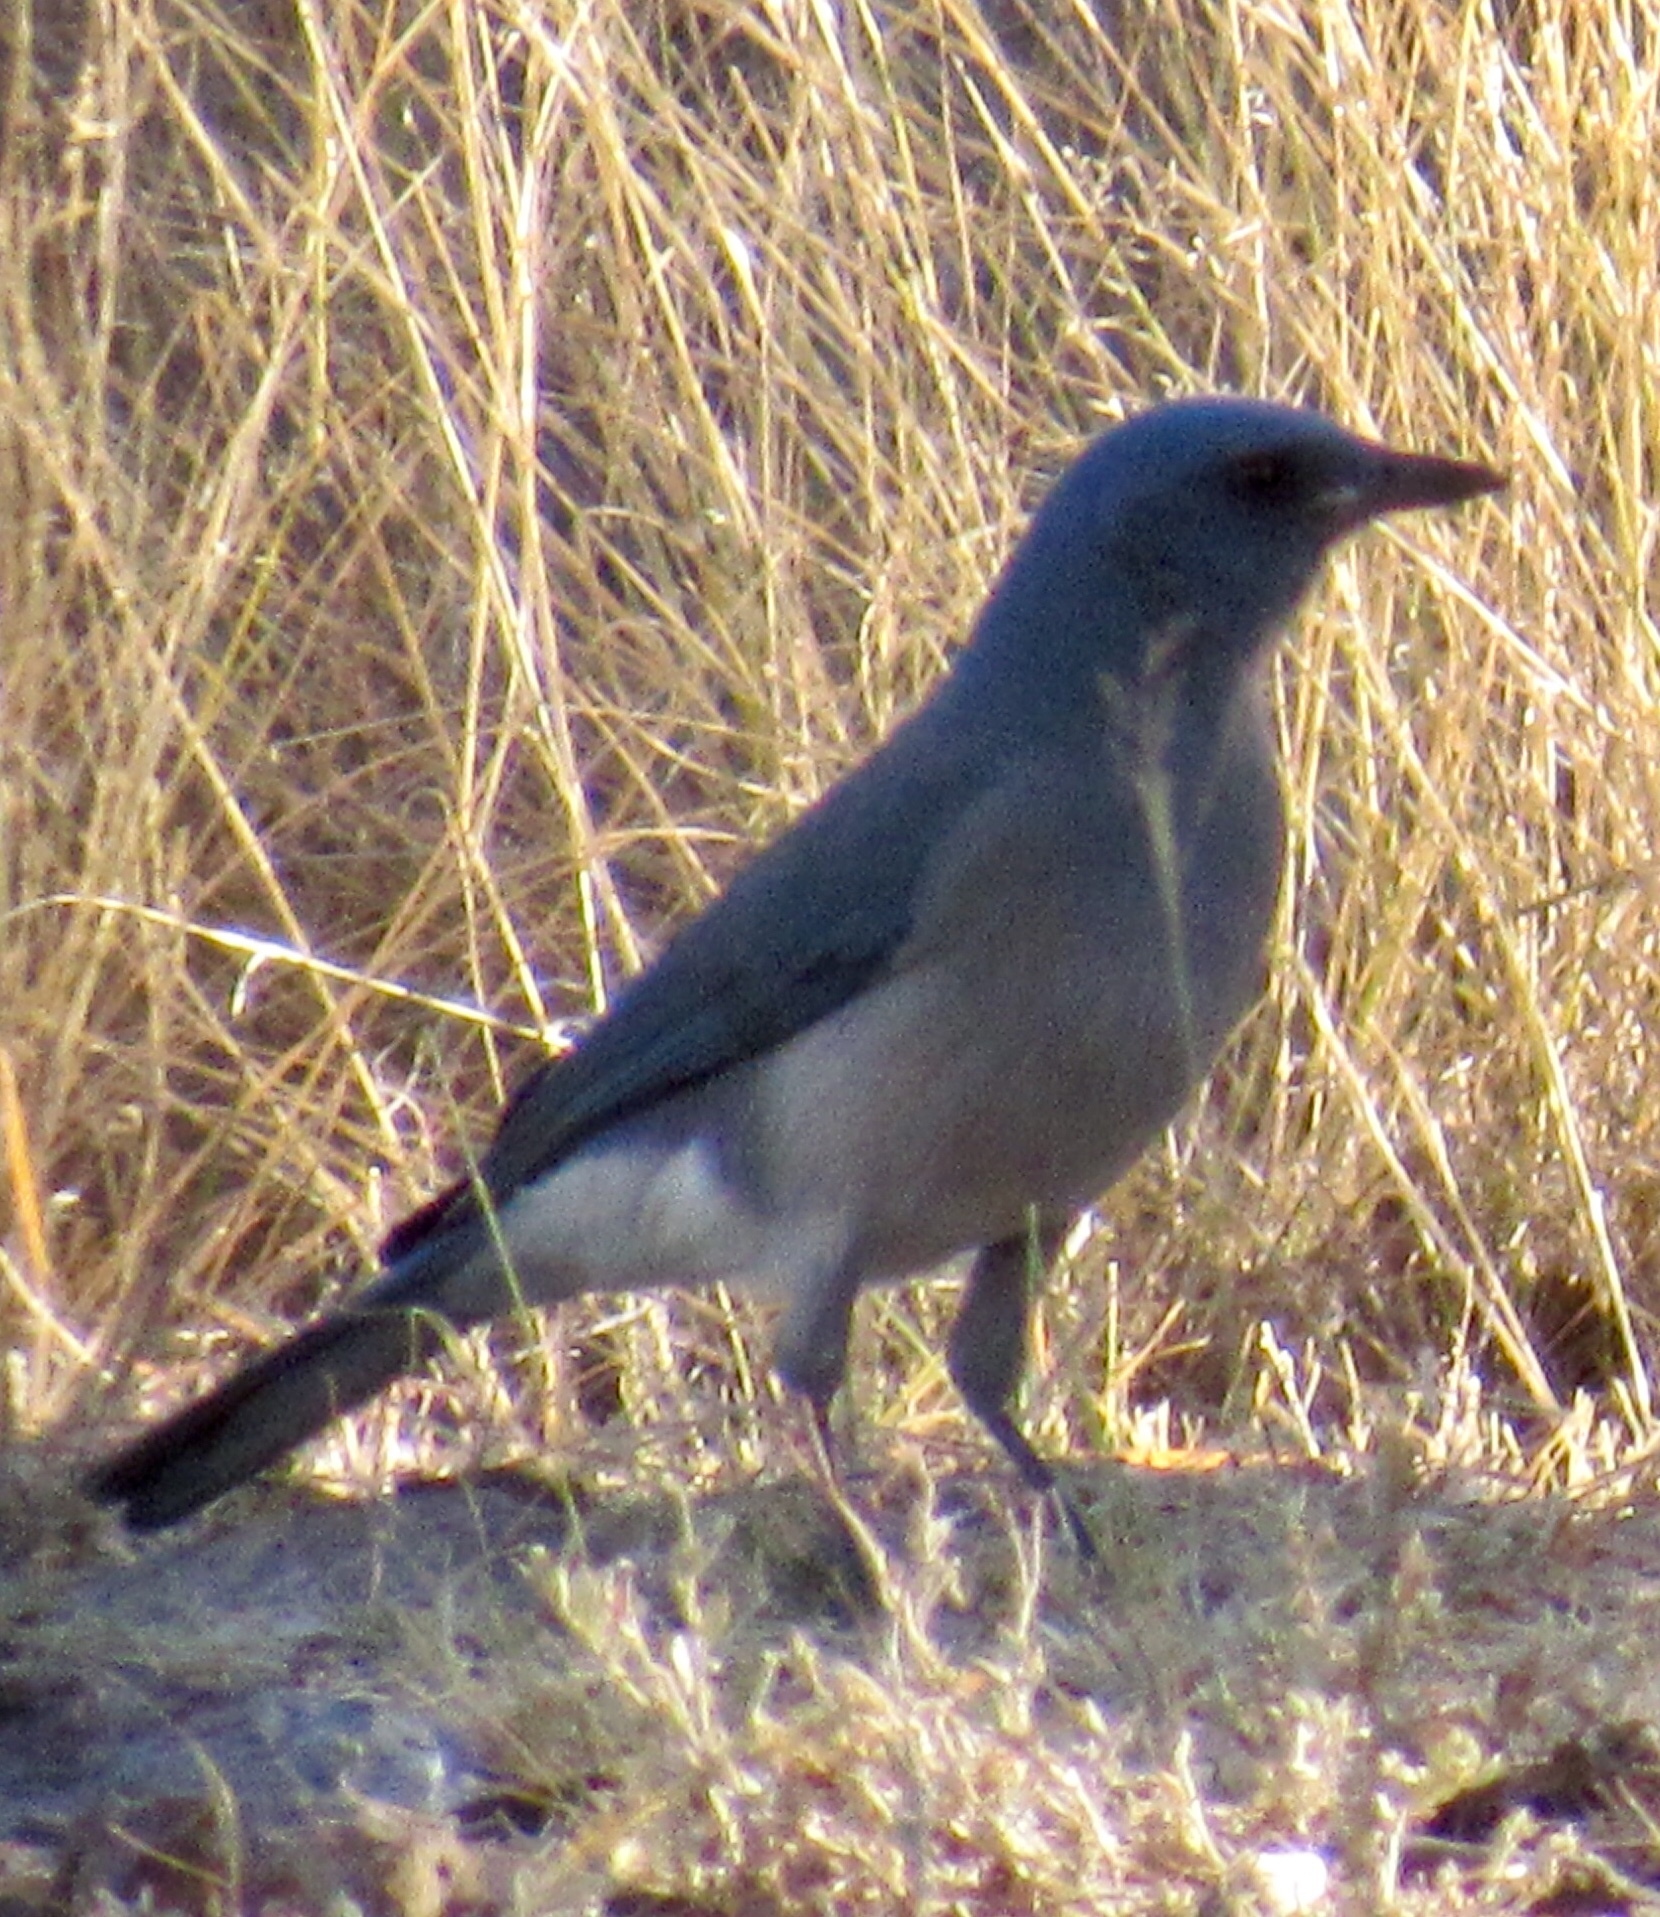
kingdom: Animalia
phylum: Chordata
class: Aves
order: Passeriformes
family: Corvidae
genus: Aphelocoma
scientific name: Aphelocoma wollweberi
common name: Mexican jay
